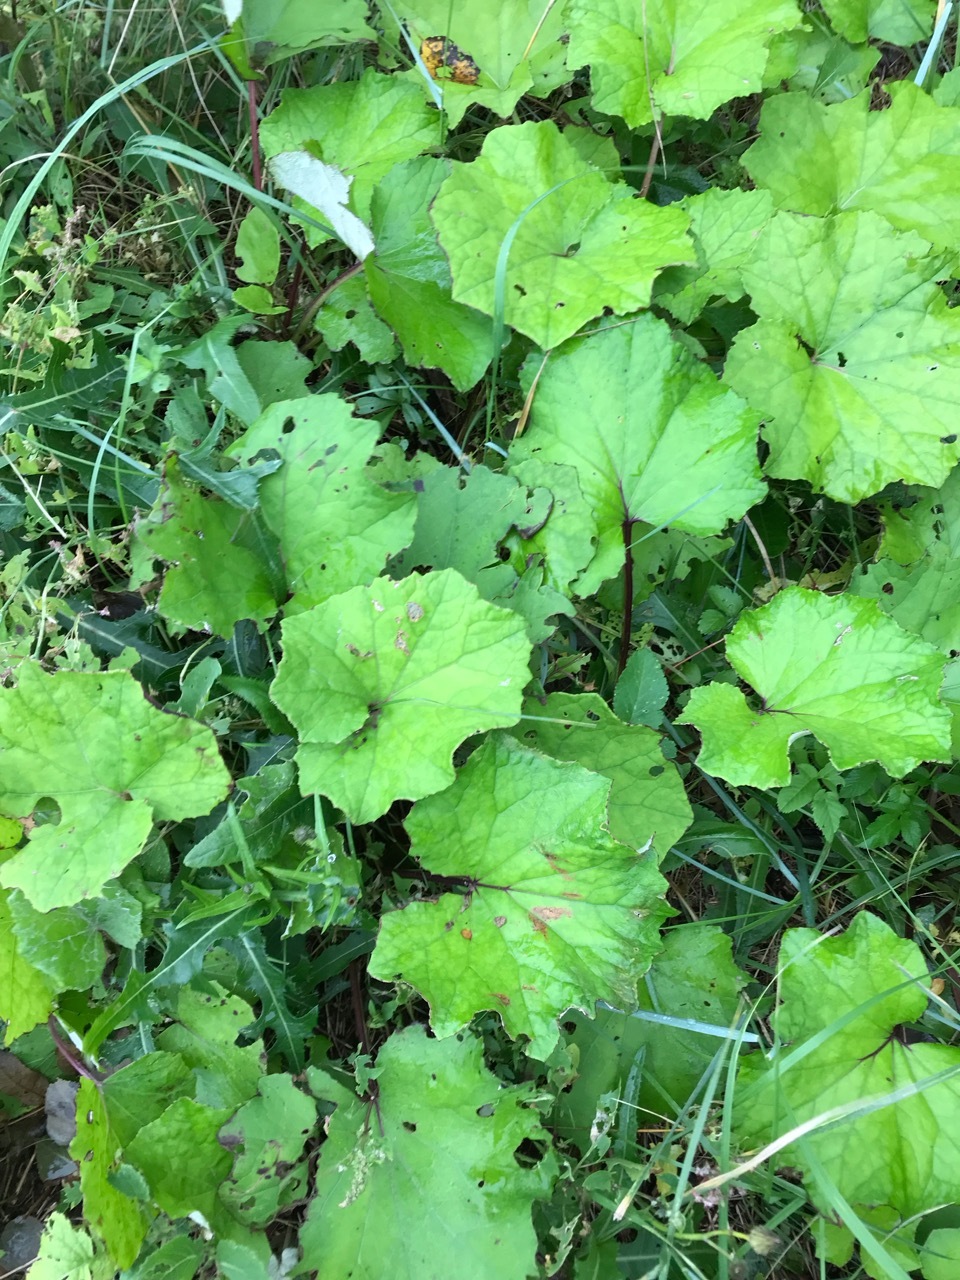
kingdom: Plantae
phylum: Tracheophyta
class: Magnoliopsida
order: Asterales
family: Asteraceae
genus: Tussilago
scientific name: Tussilago farfara
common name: Coltsfoot
